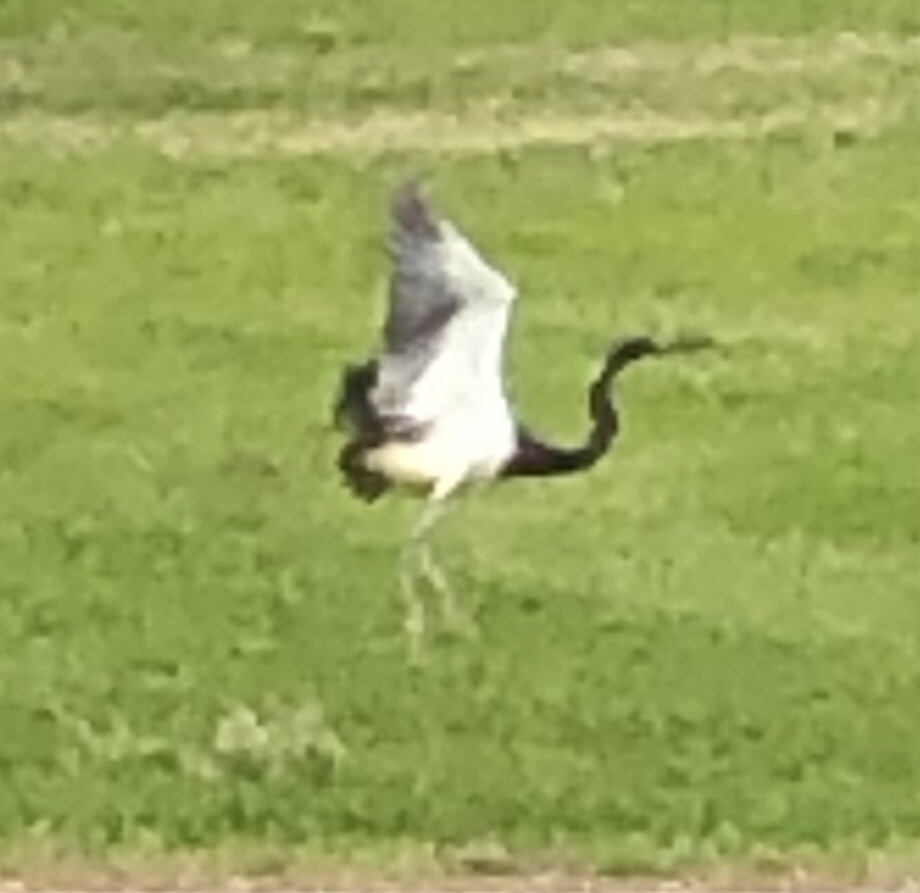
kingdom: Animalia
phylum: Chordata
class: Aves
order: Pelecaniformes
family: Ardeidae
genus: Egretta
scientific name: Egretta tricolor
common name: Tricolored heron
